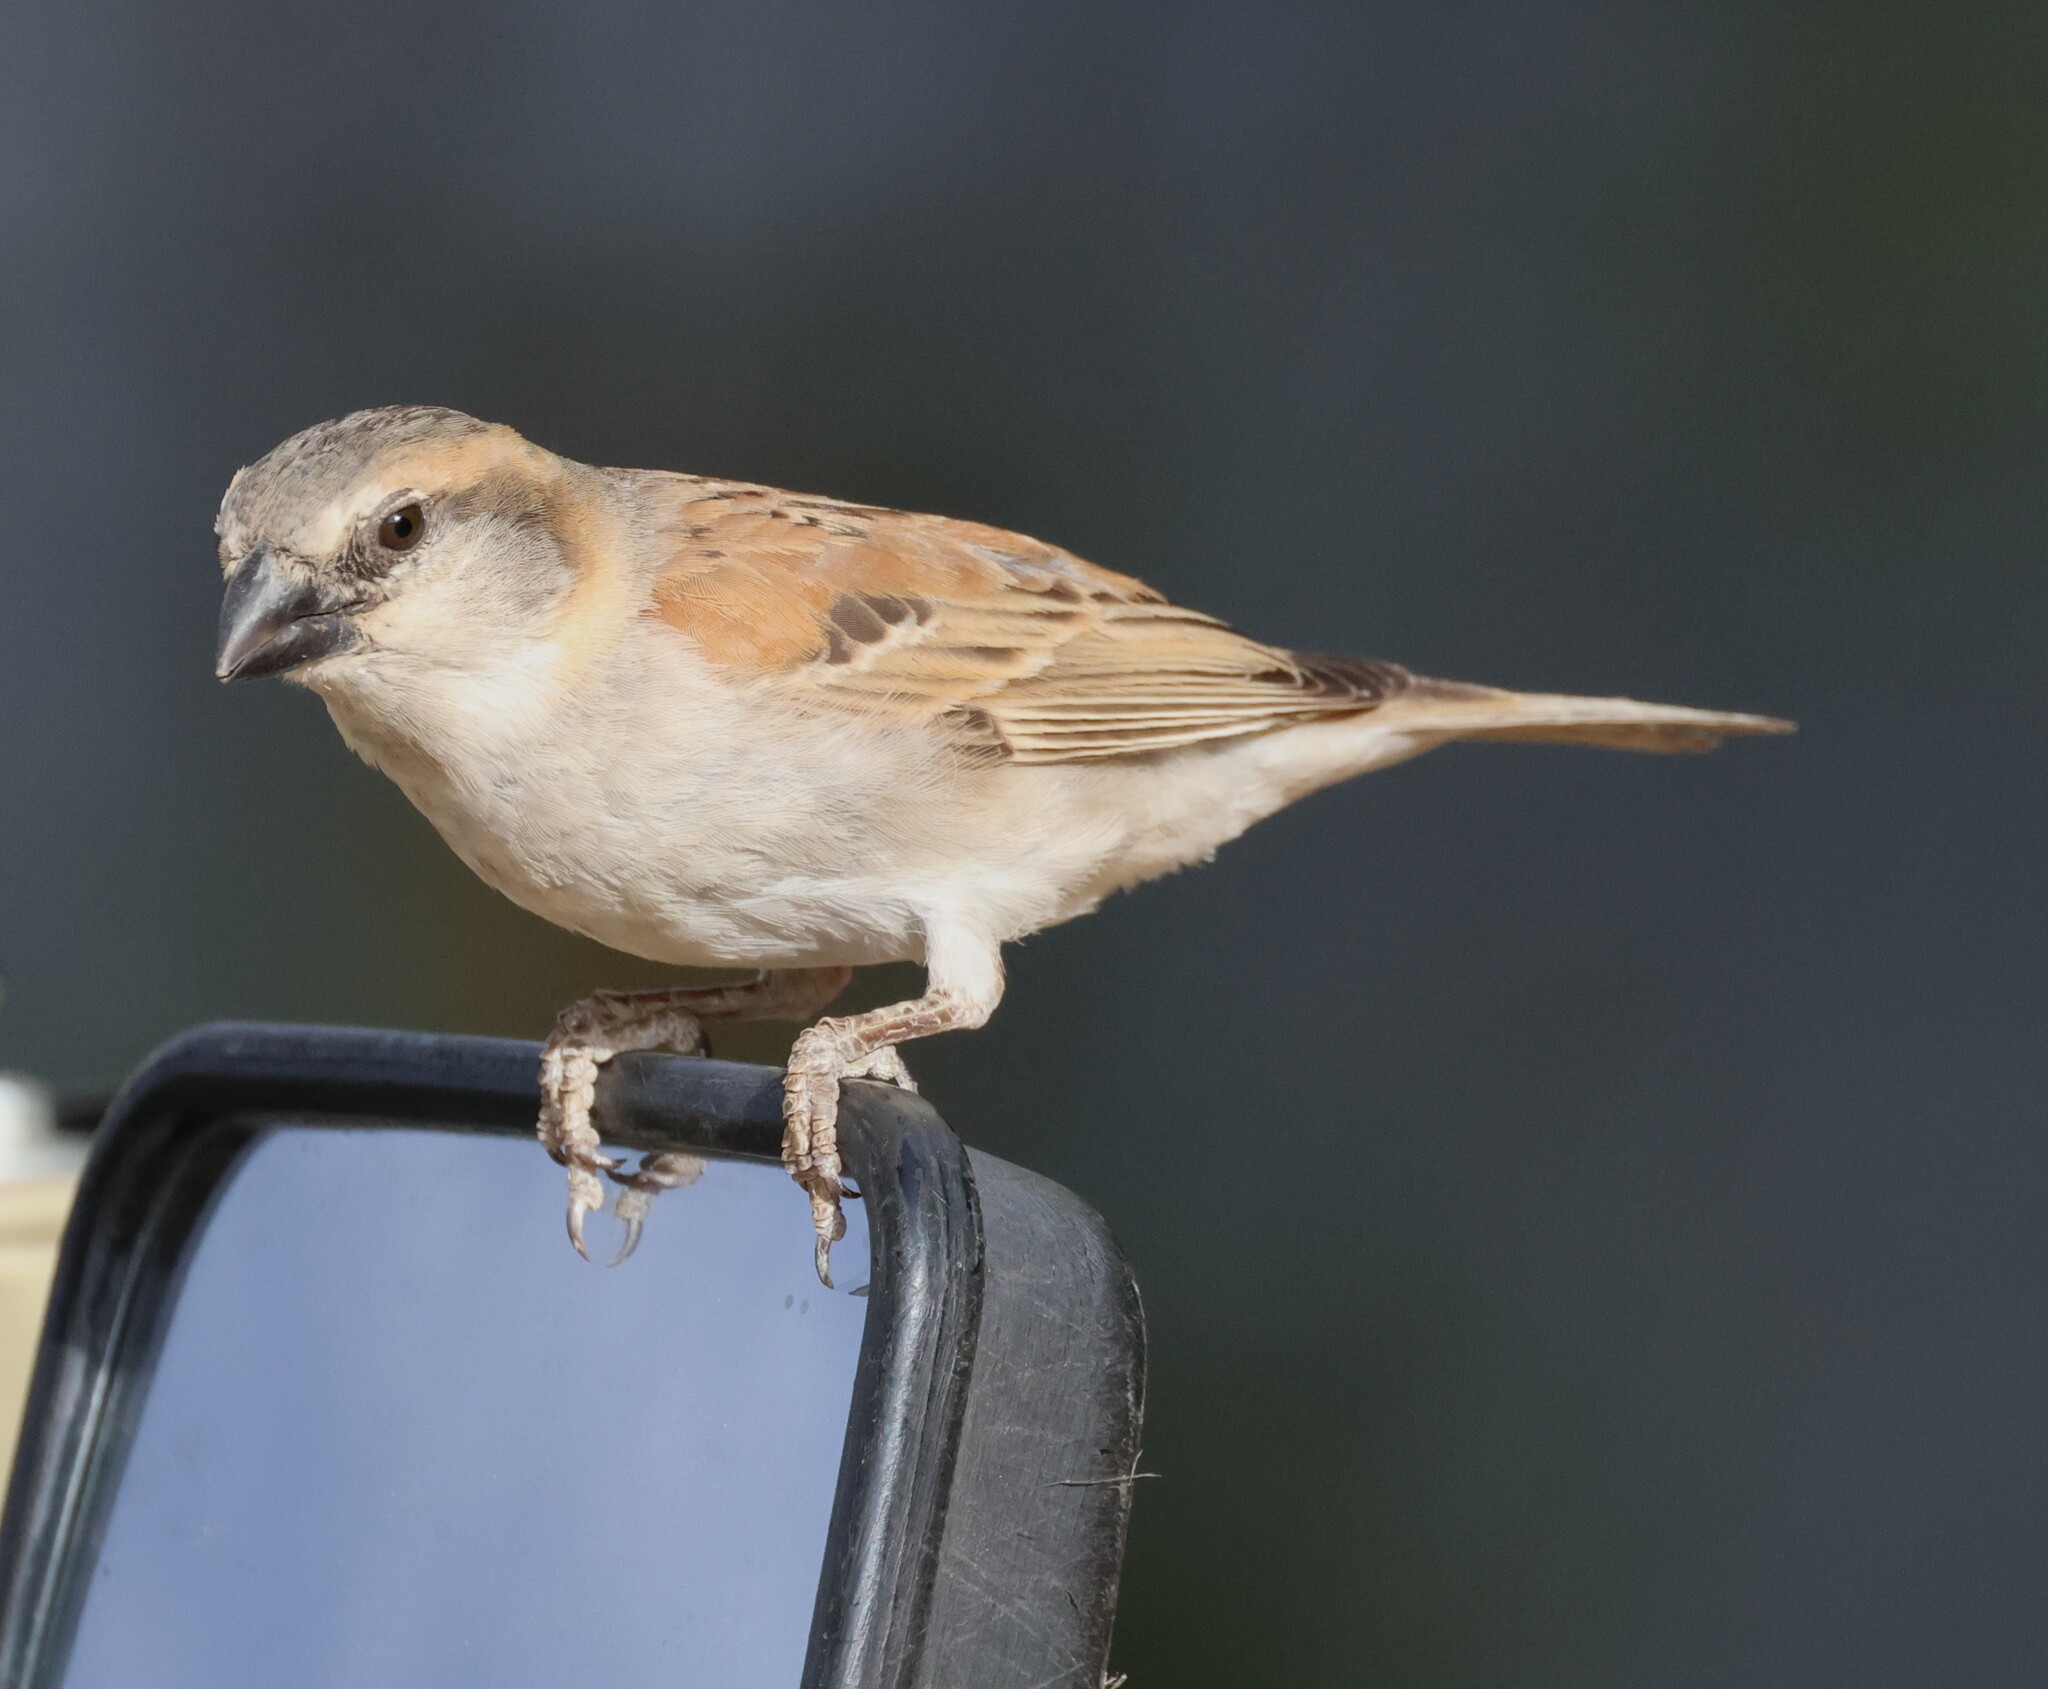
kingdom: Animalia
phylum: Chordata
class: Aves
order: Passeriformes
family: Passeridae
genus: Passer
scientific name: Passer motitensis
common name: Great sparrow
